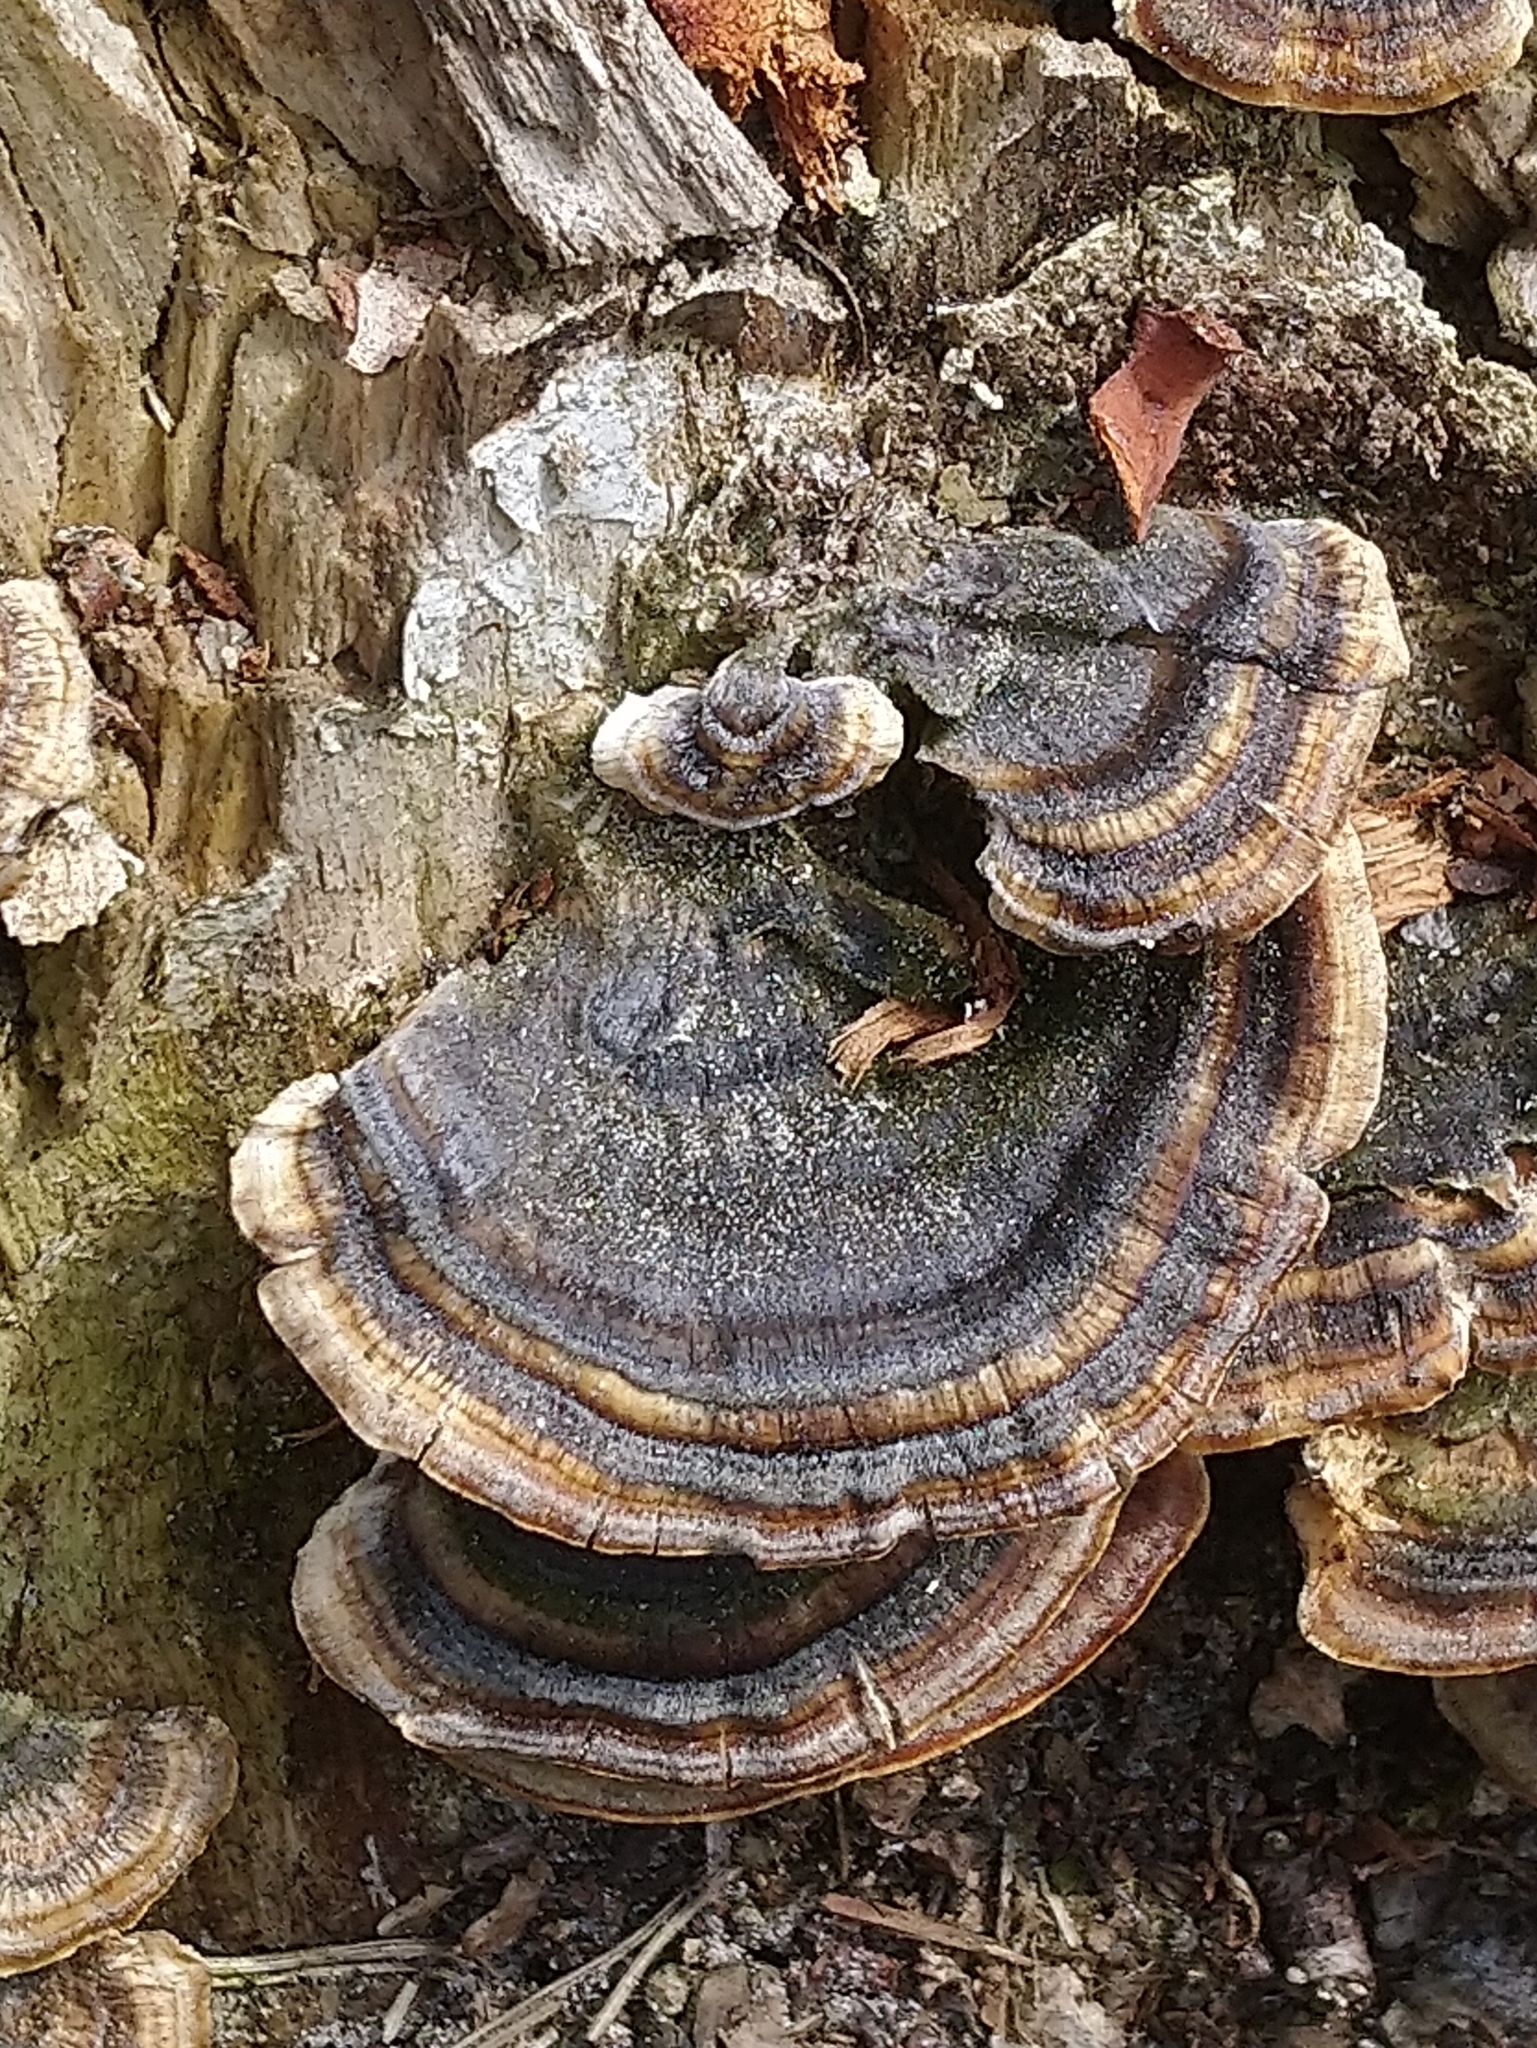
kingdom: Fungi
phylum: Basidiomycota
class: Agaricomycetes
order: Polyporales
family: Polyporaceae
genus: Trametes
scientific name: Trametes versicolor
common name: Turkeytail
